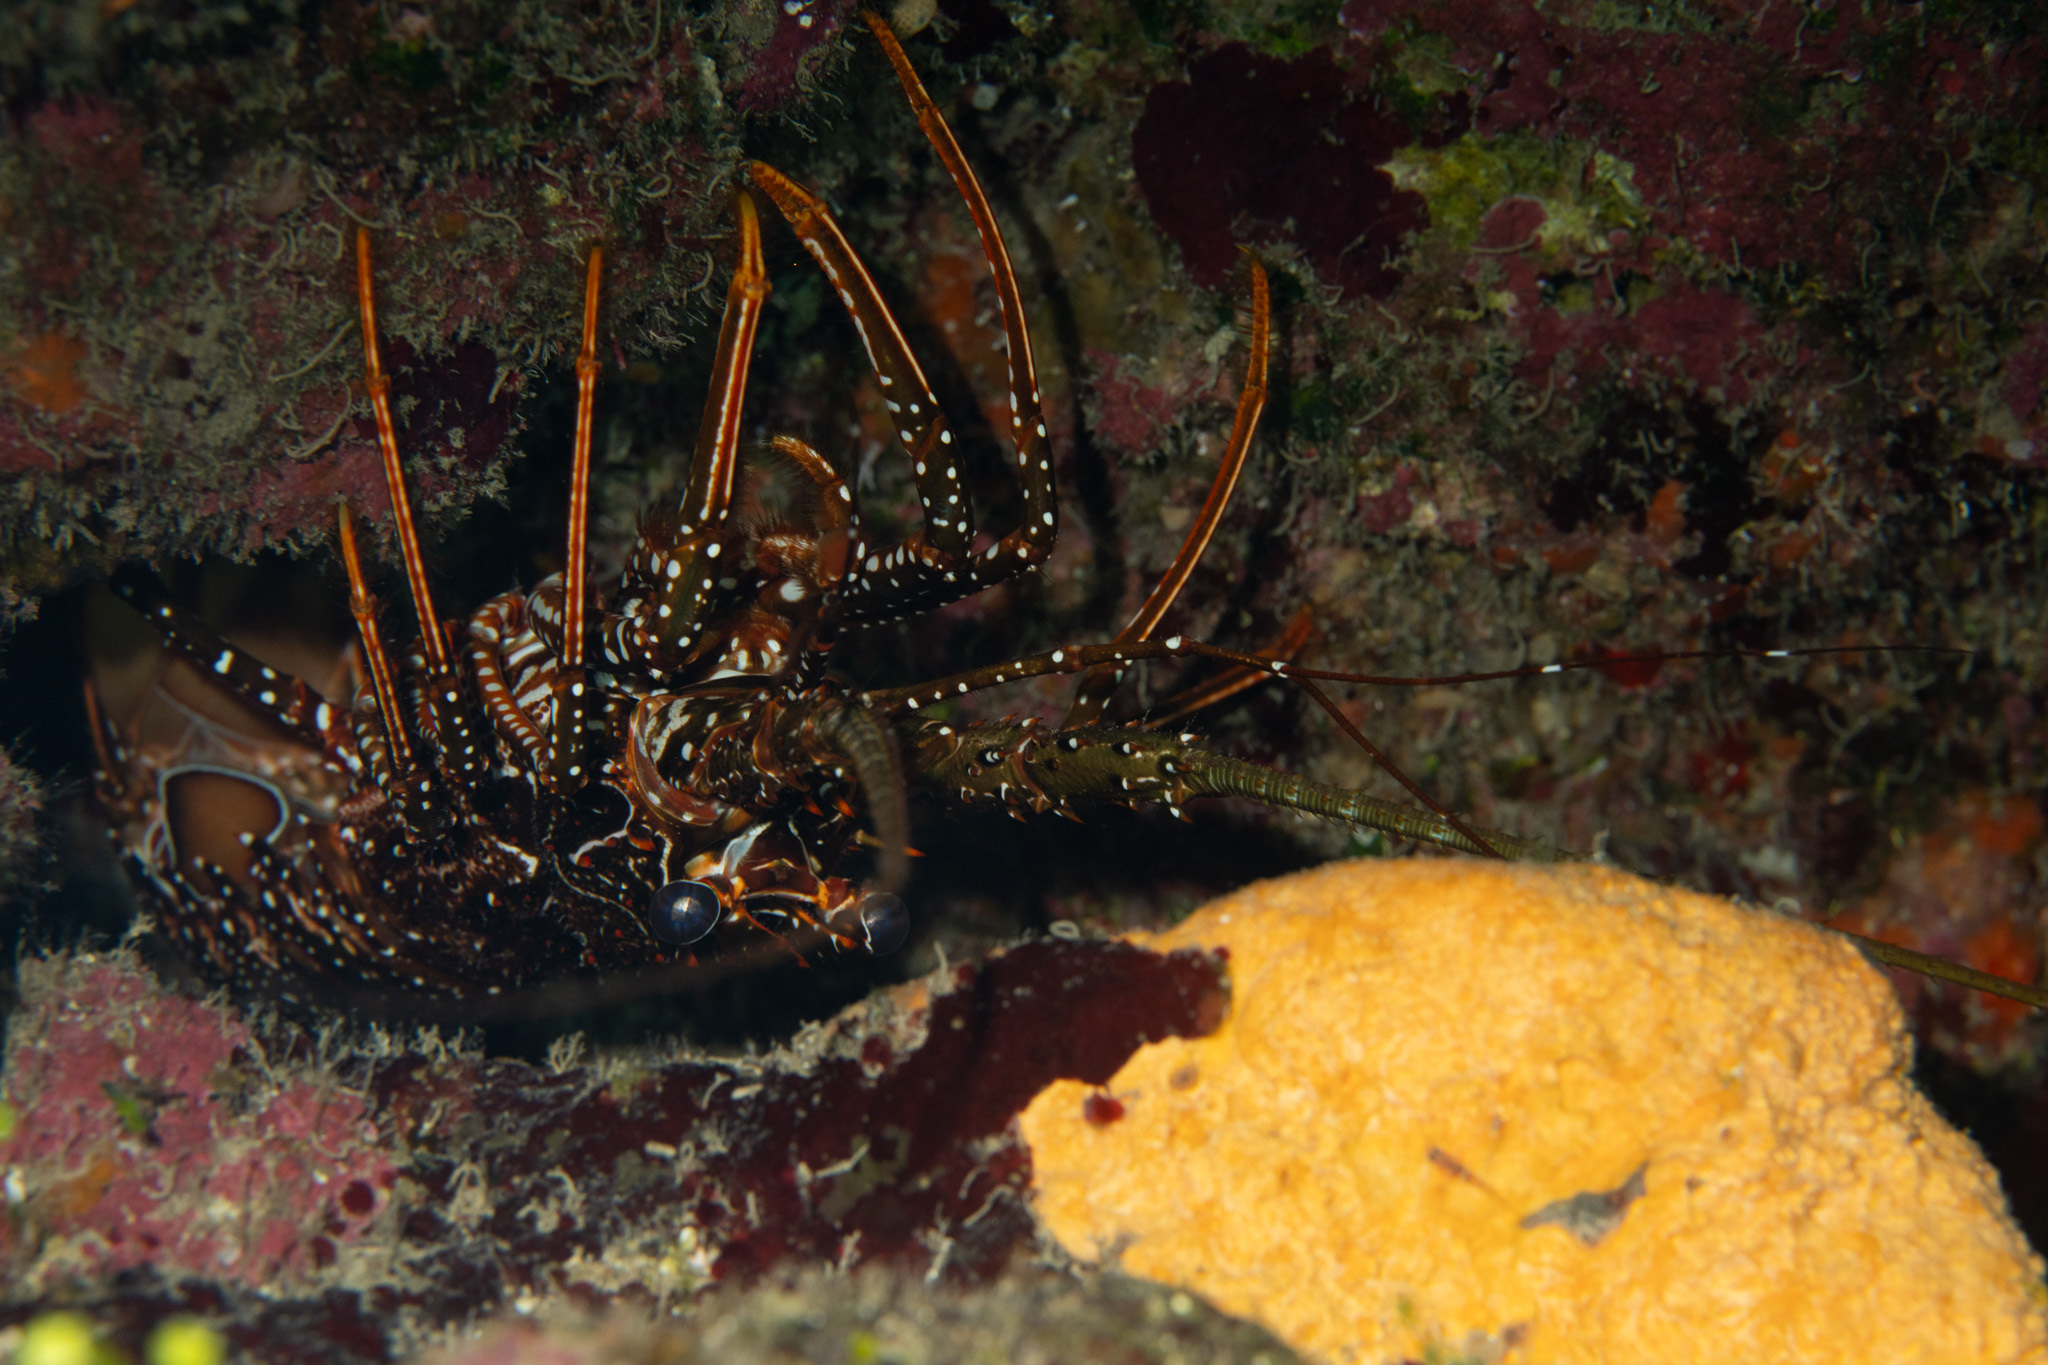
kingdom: Animalia
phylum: Arthropoda
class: Malacostraca
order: Decapoda
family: Palinuridae
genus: Panulirus
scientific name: Panulirus guttatus
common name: Spotted spiny lobster
